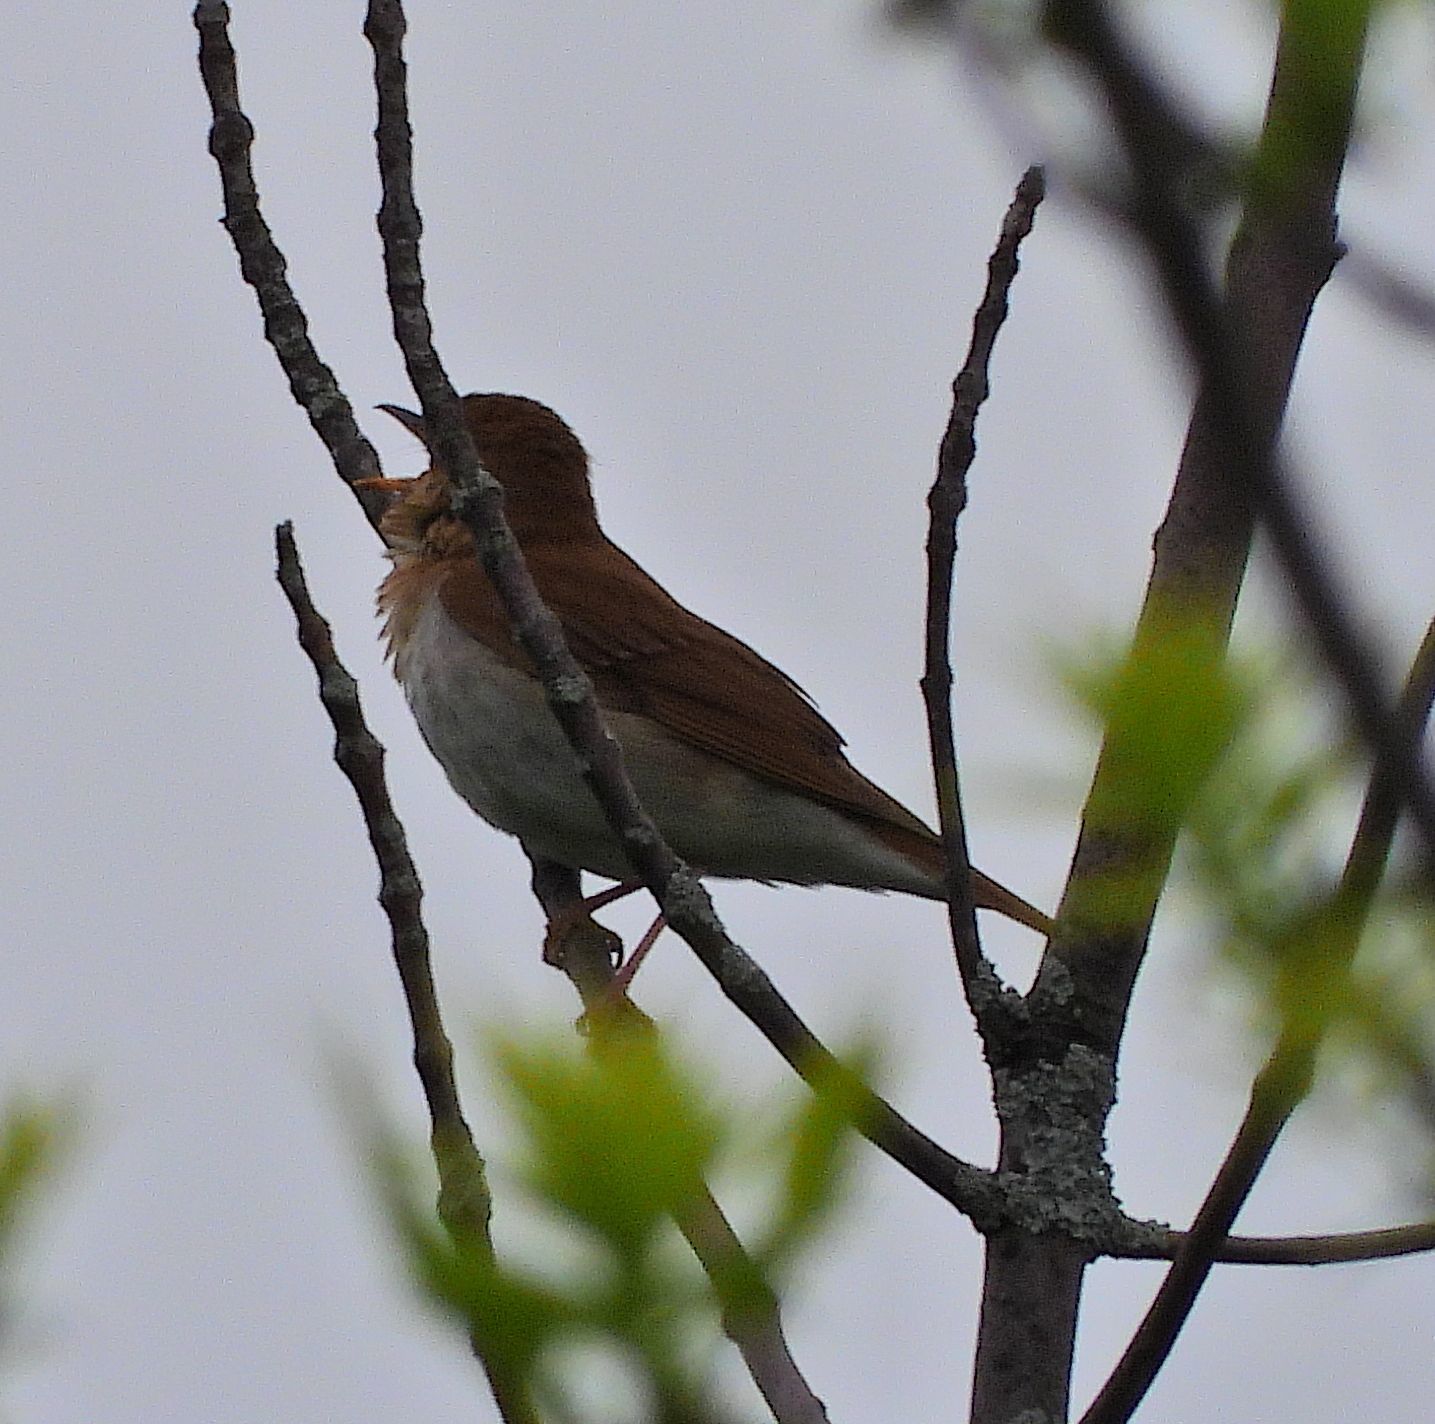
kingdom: Animalia
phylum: Chordata
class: Aves
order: Passeriformes
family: Turdidae
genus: Catharus
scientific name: Catharus fuscescens
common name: Veery
